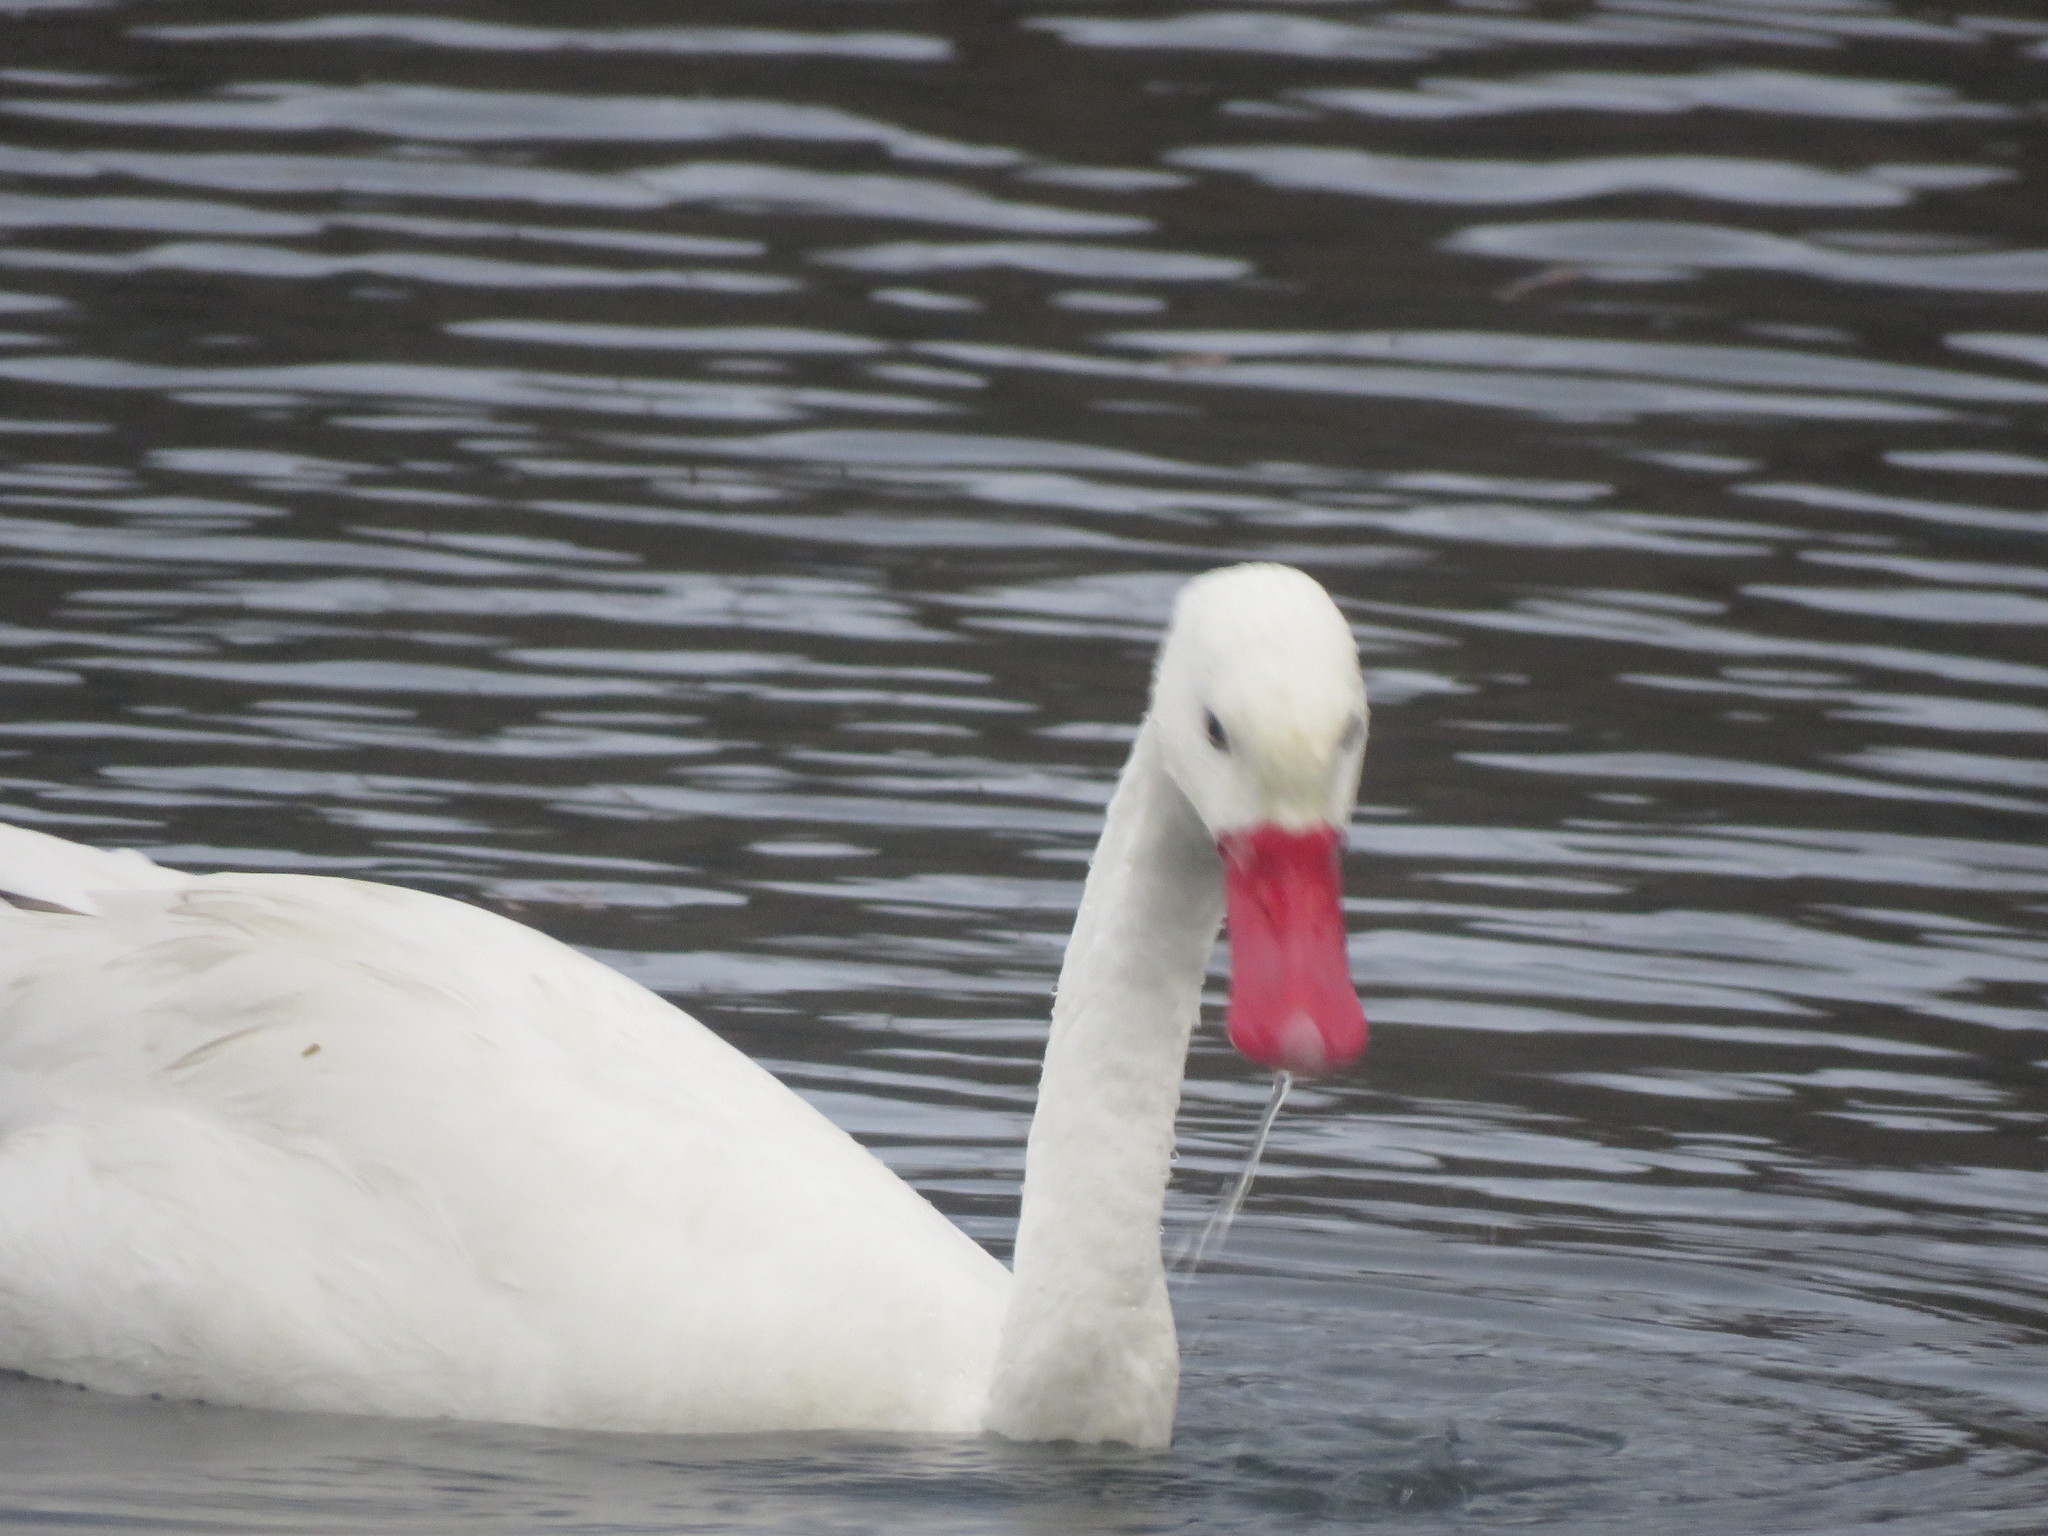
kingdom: Animalia
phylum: Chordata
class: Aves
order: Anseriformes
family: Anatidae
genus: Coscoroba
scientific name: Coscoroba coscoroba
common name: Coscoroba swan
